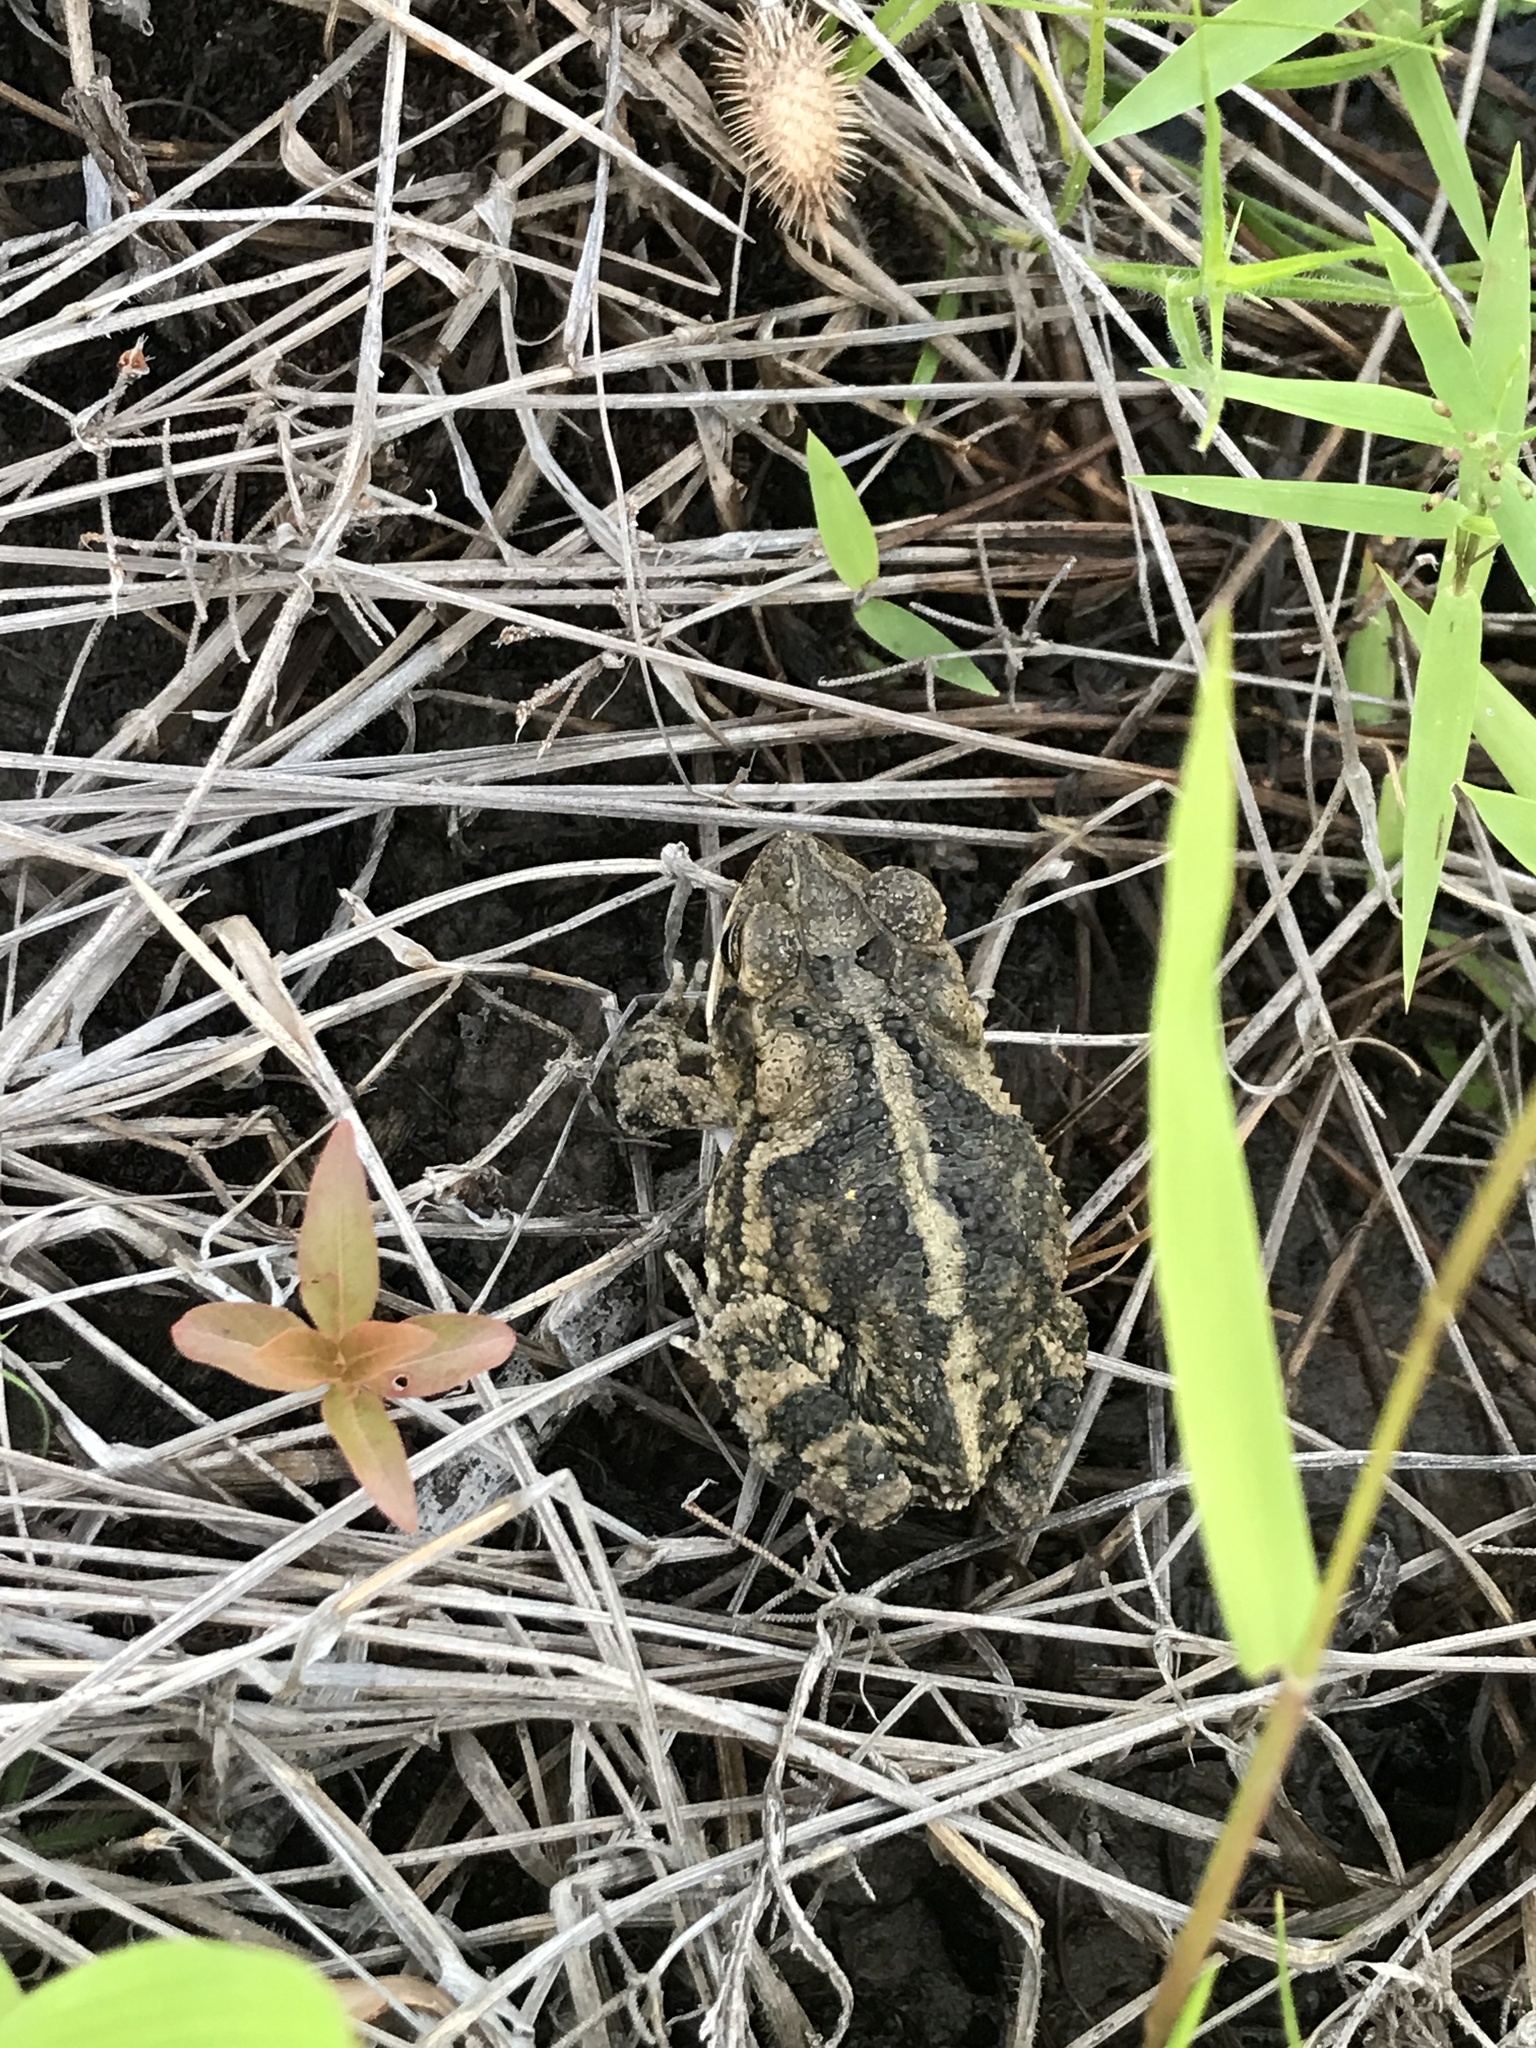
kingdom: Animalia
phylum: Chordata
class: Amphibia
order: Anura
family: Bufonidae
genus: Incilius
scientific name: Incilius nebulifer
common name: Gulf coast toad
